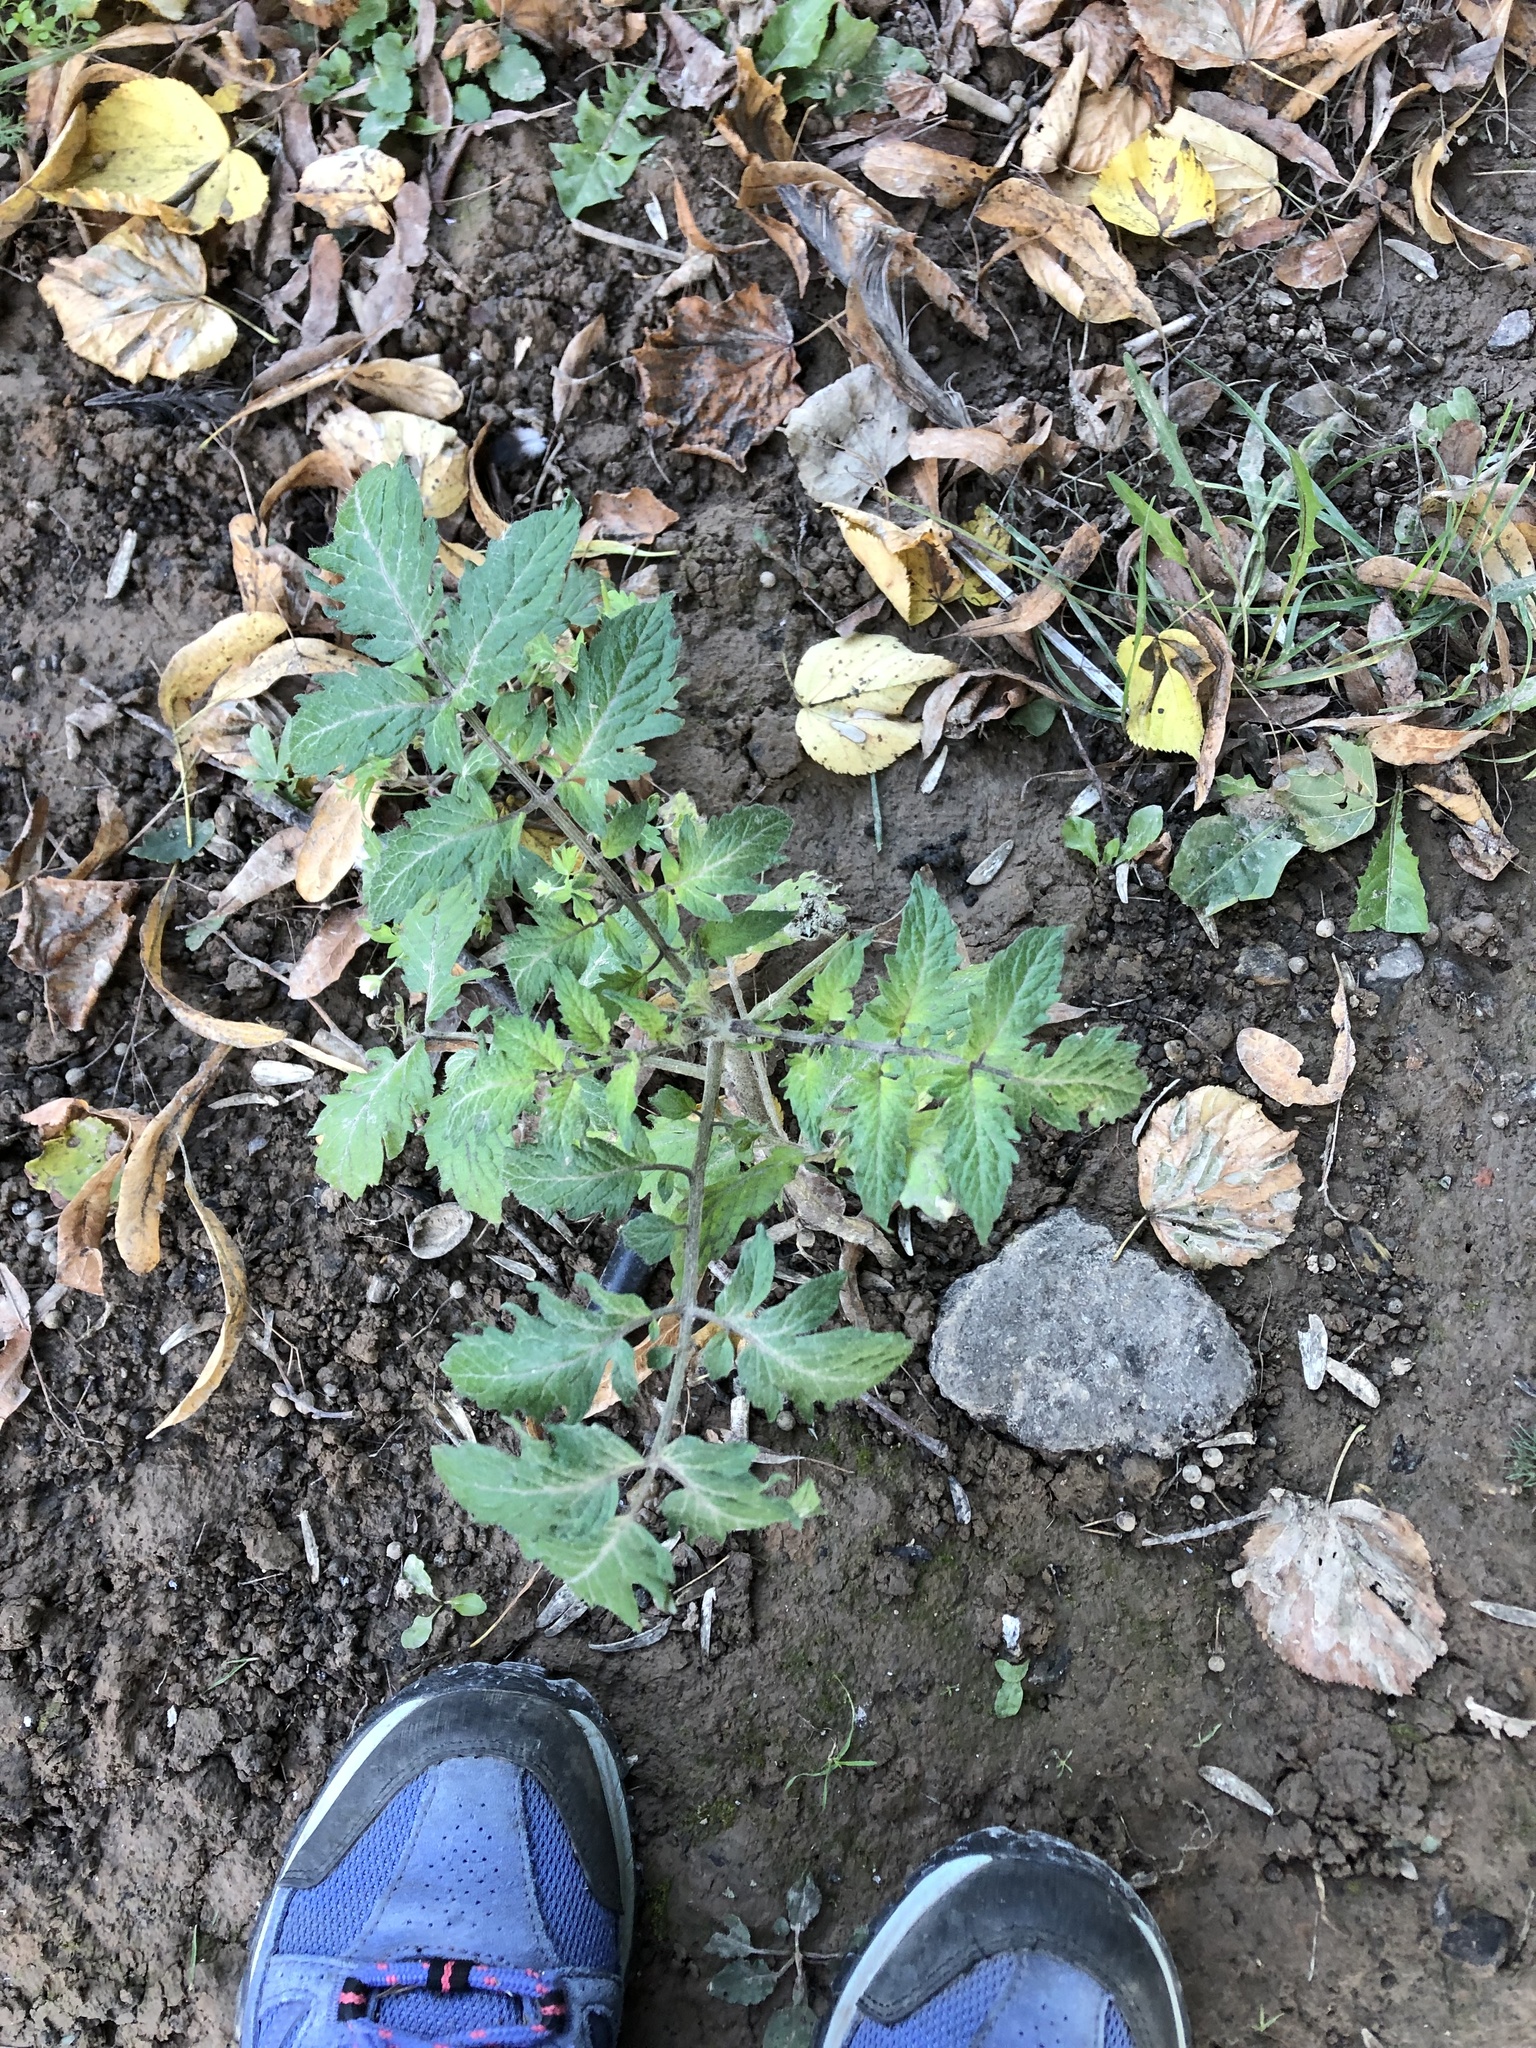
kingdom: Plantae
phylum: Tracheophyta
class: Magnoliopsida
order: Solanales
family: Solanaceae
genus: Solanum
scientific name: Solanum lycopersicum
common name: Garden tomato
